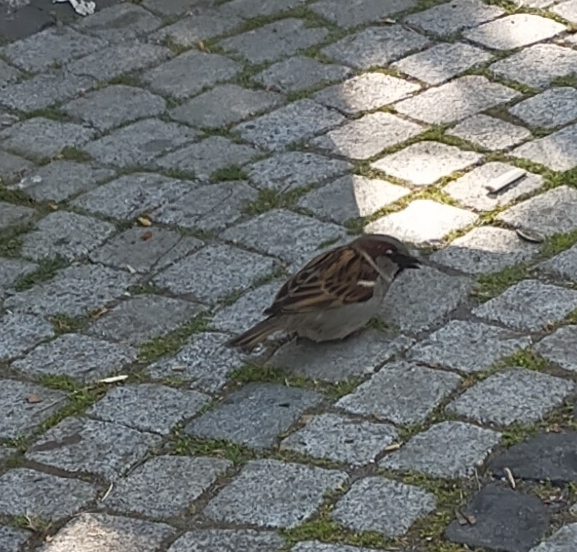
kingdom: Animalia
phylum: Chordata
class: Aves
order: Passeriformes
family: Passeridae
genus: Passer
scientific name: Passer domesticus
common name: House sparrow
